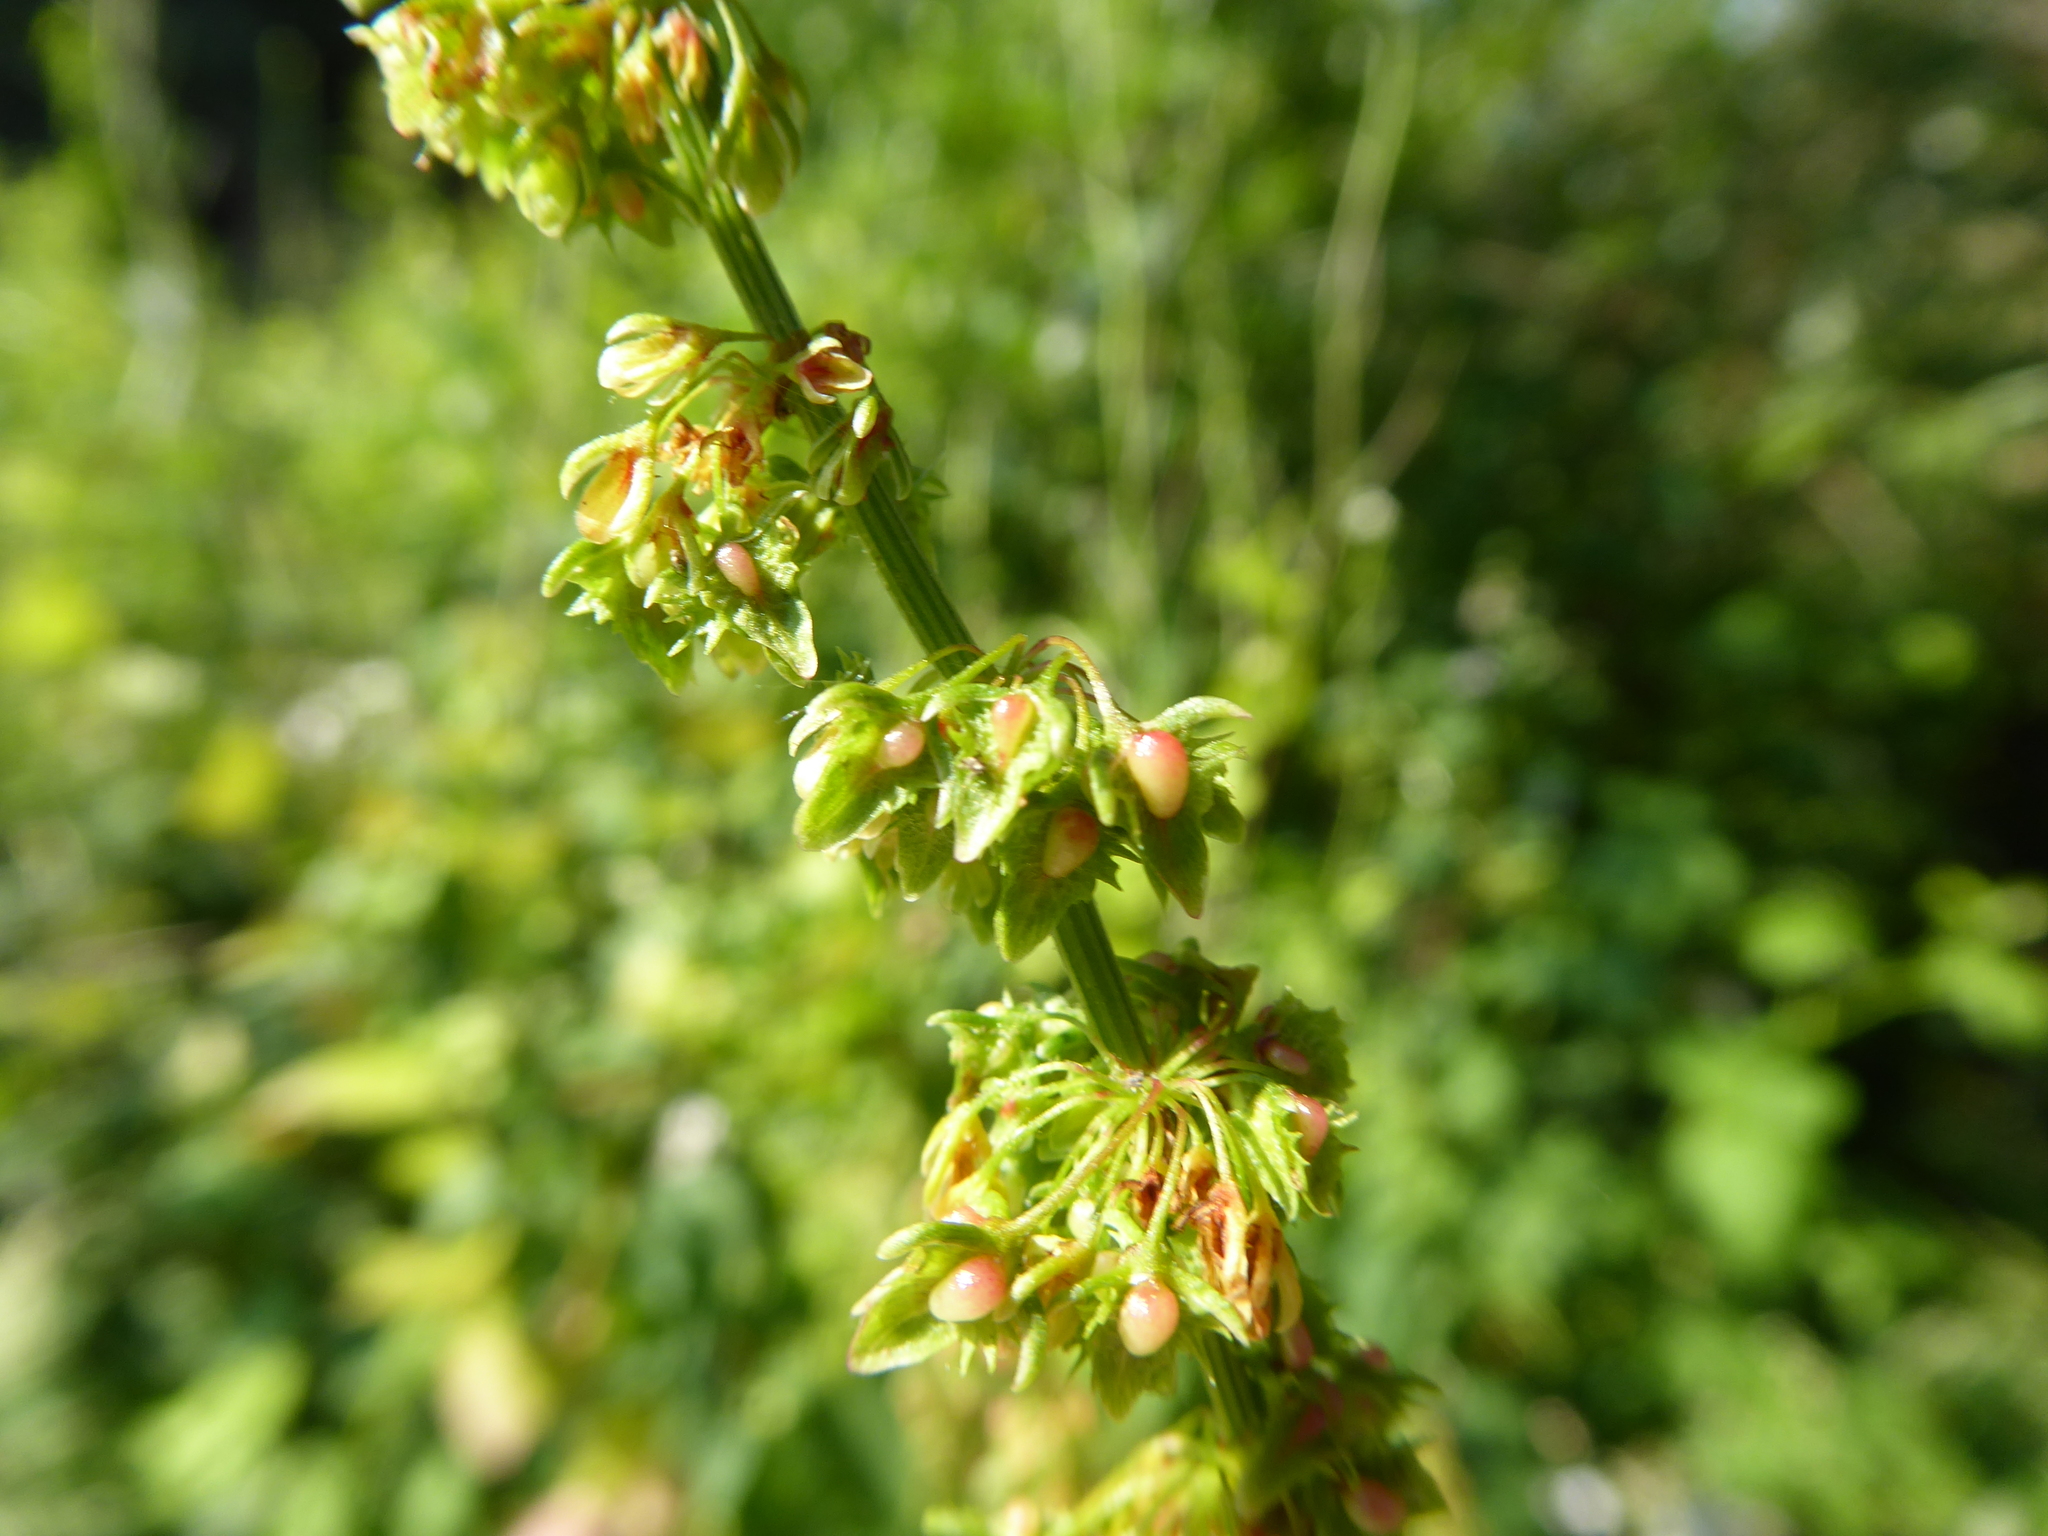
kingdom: Plantae
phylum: Tracheophyta
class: Magnoliopsida
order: Caryophyllales
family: Polygonaceae
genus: Rumex
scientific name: Rumex obtusifolius
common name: Bitter dock
